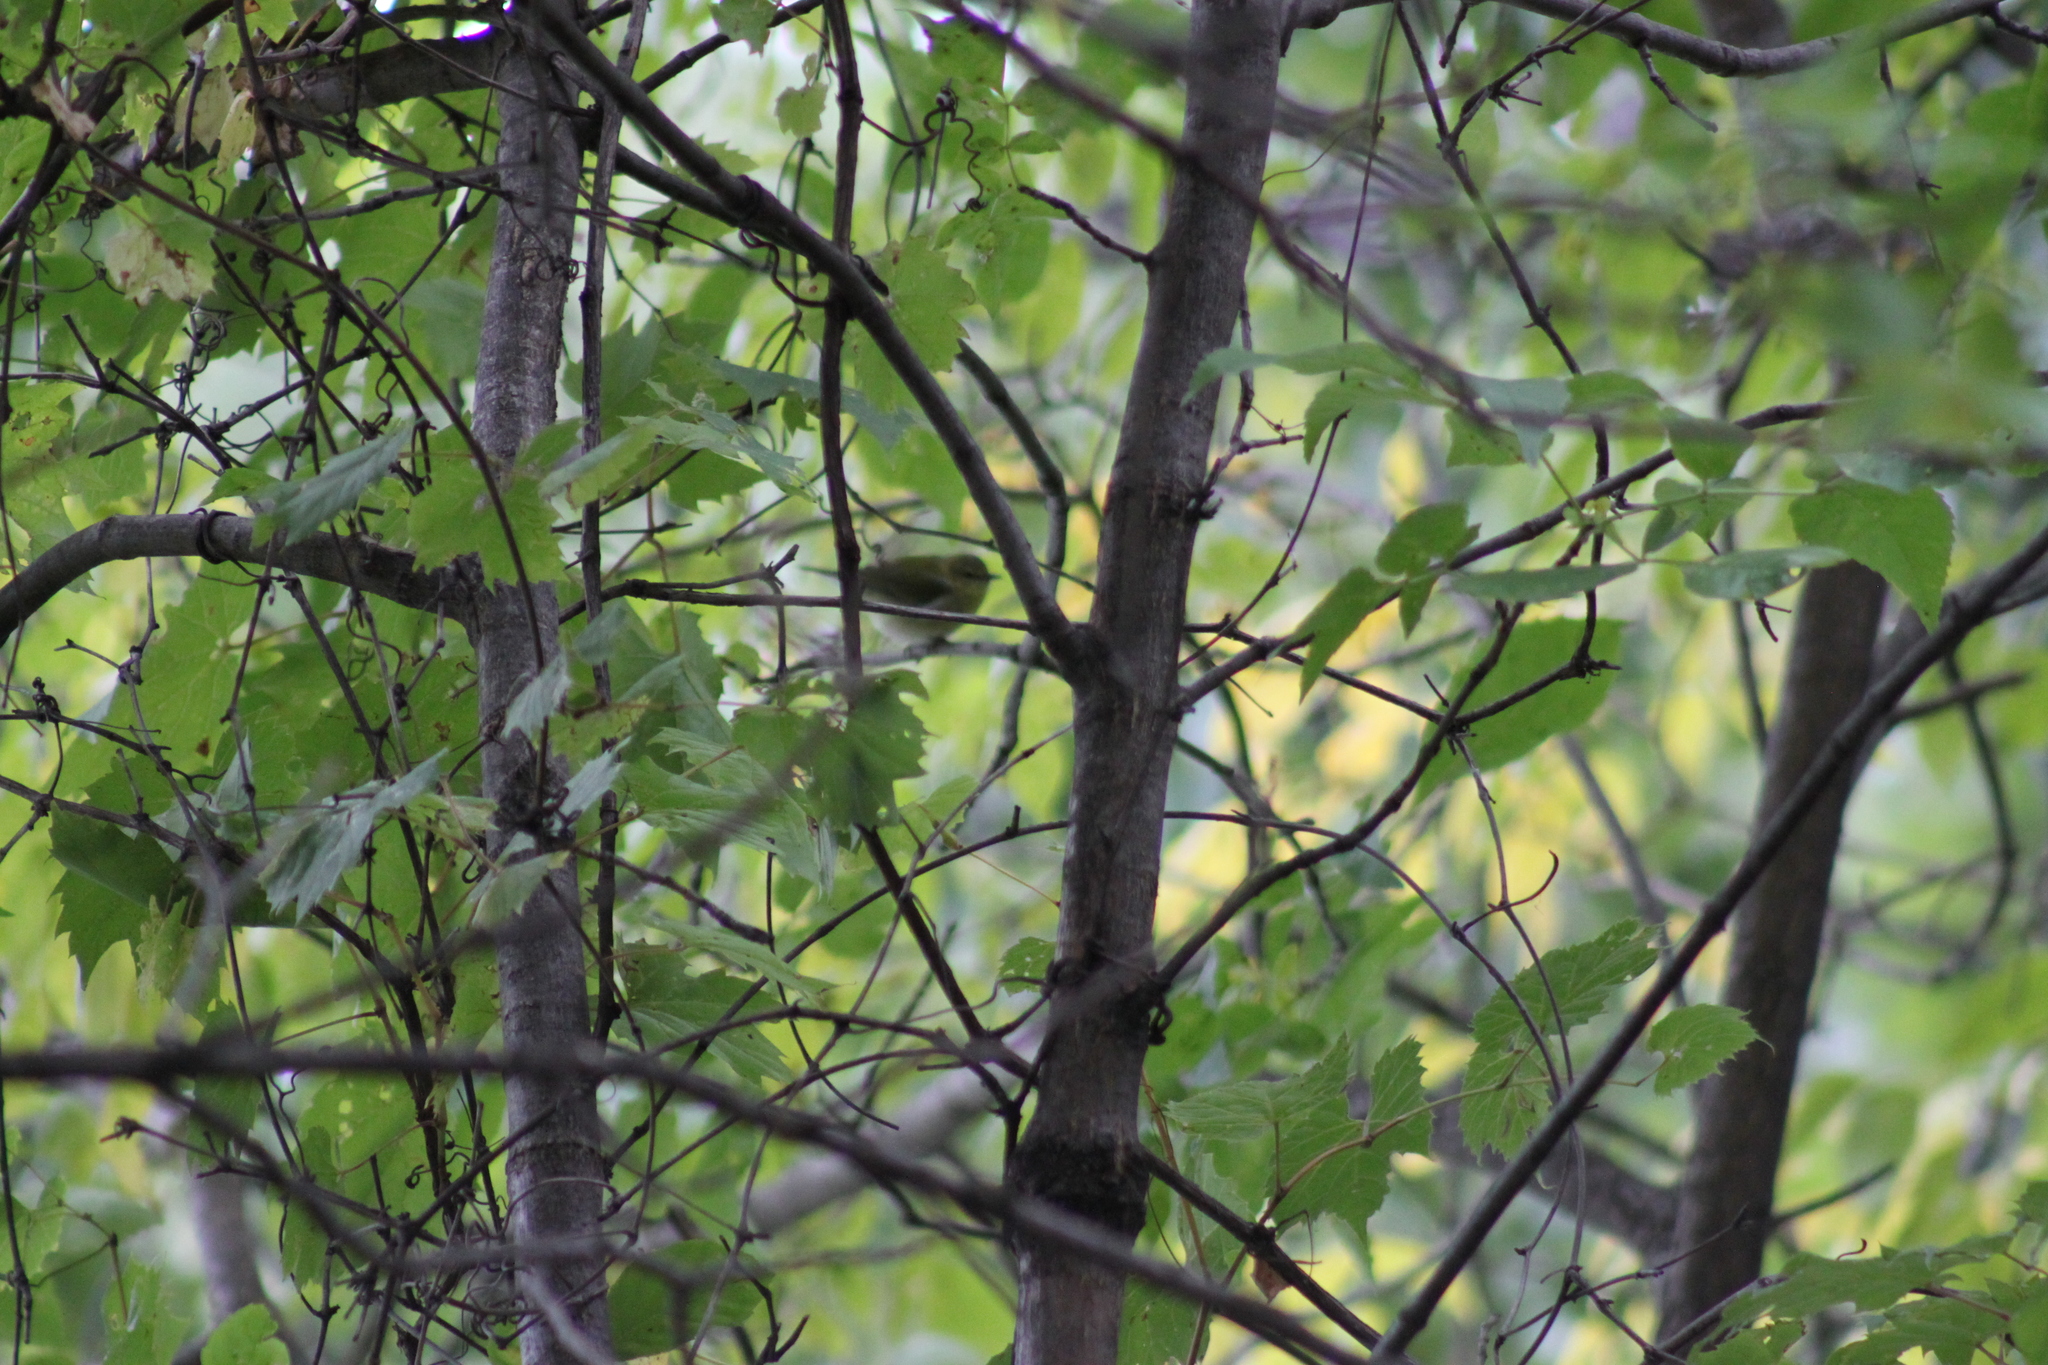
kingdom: Animalia
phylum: Chordata
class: Aves
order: Passeriformes
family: Parulidae
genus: Leiothlypis
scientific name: Leiothlypis peregrina
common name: Tennessee warbler
